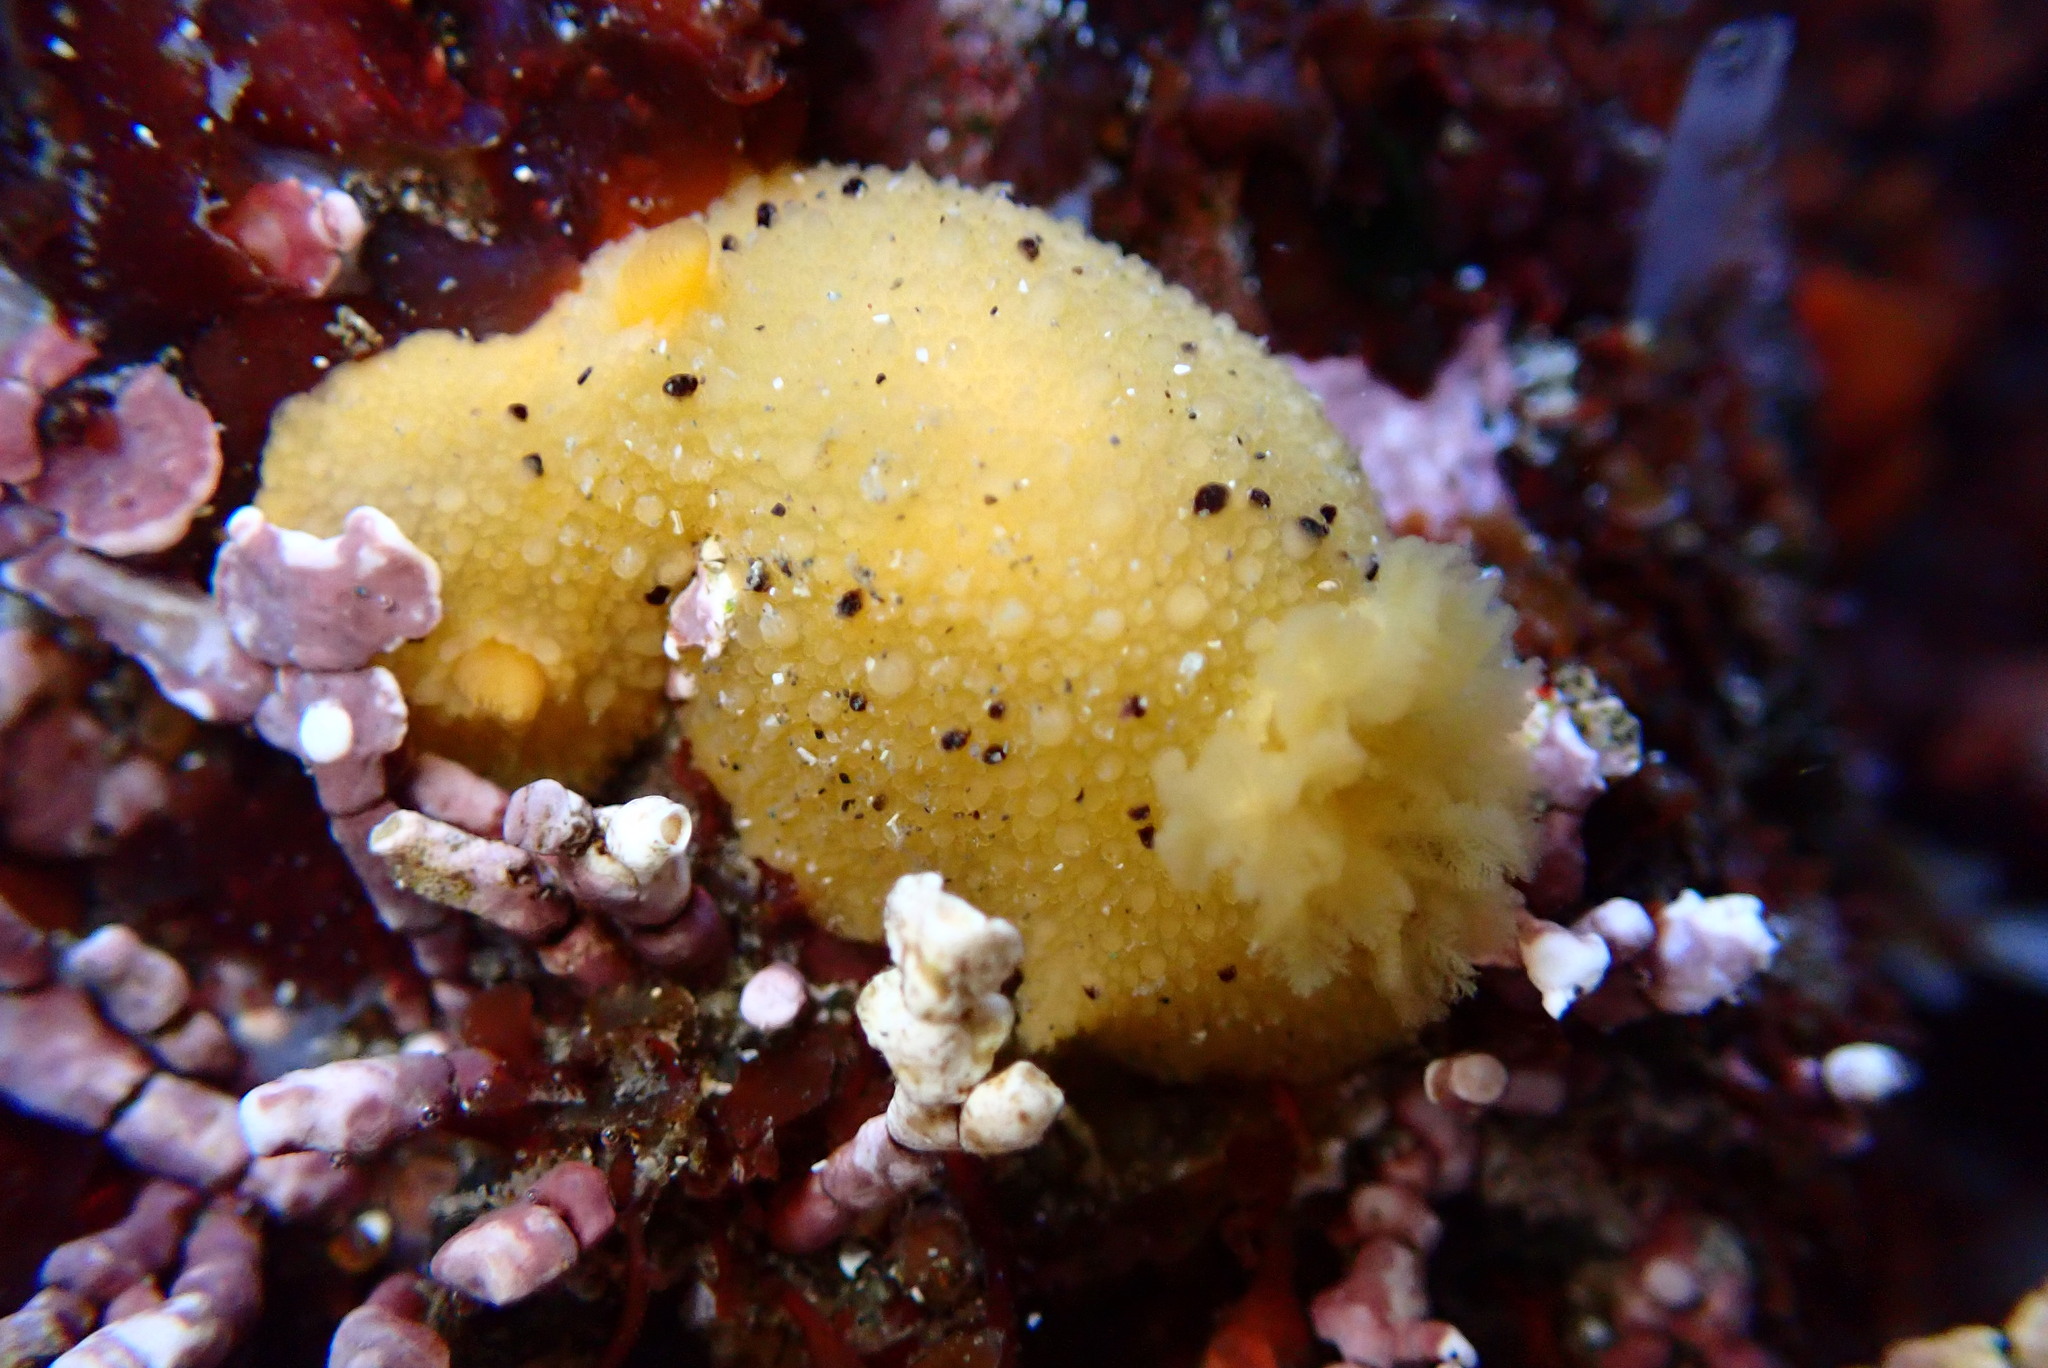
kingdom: Animalia
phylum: Mollusca
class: Gastropoda
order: Nudibranchia
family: Dorididae
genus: Doris
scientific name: Doris montereyensis
